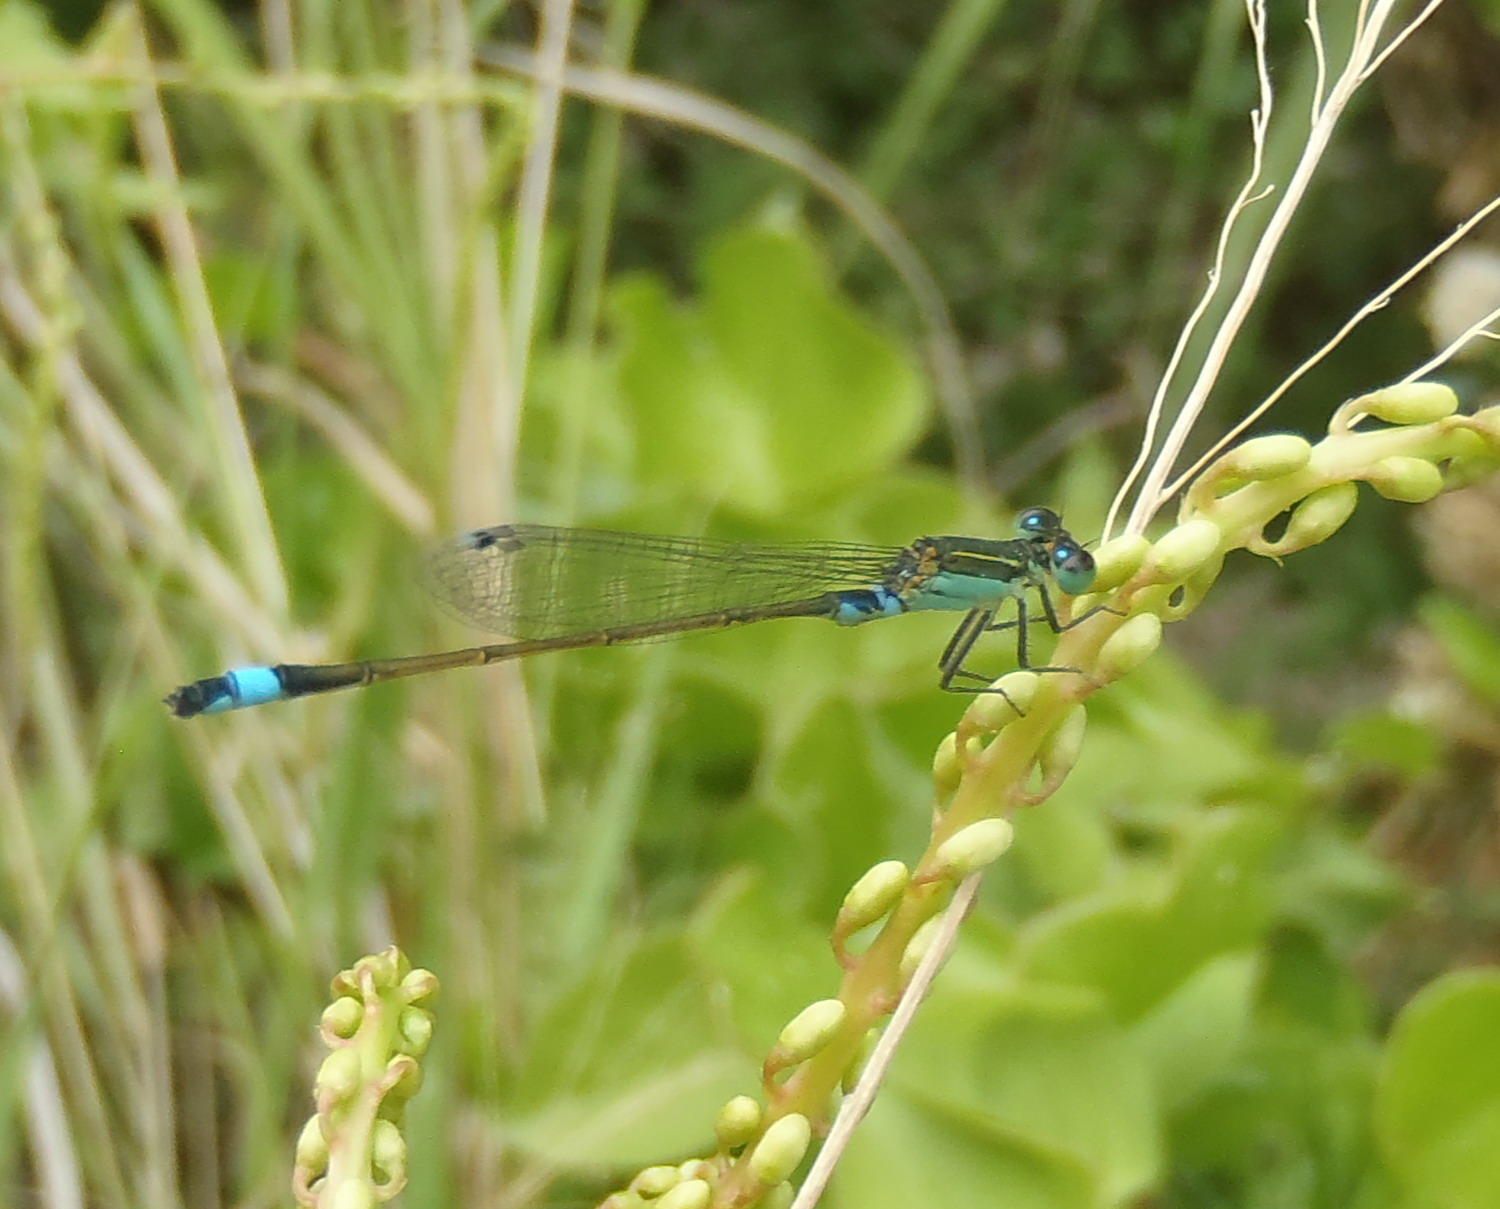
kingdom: Animalia
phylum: Arthropoda
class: Insecta
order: Odonata
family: Coenagrionidae
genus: Ischnura
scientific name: Ischnura senegalensis
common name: Tropical bluetail
